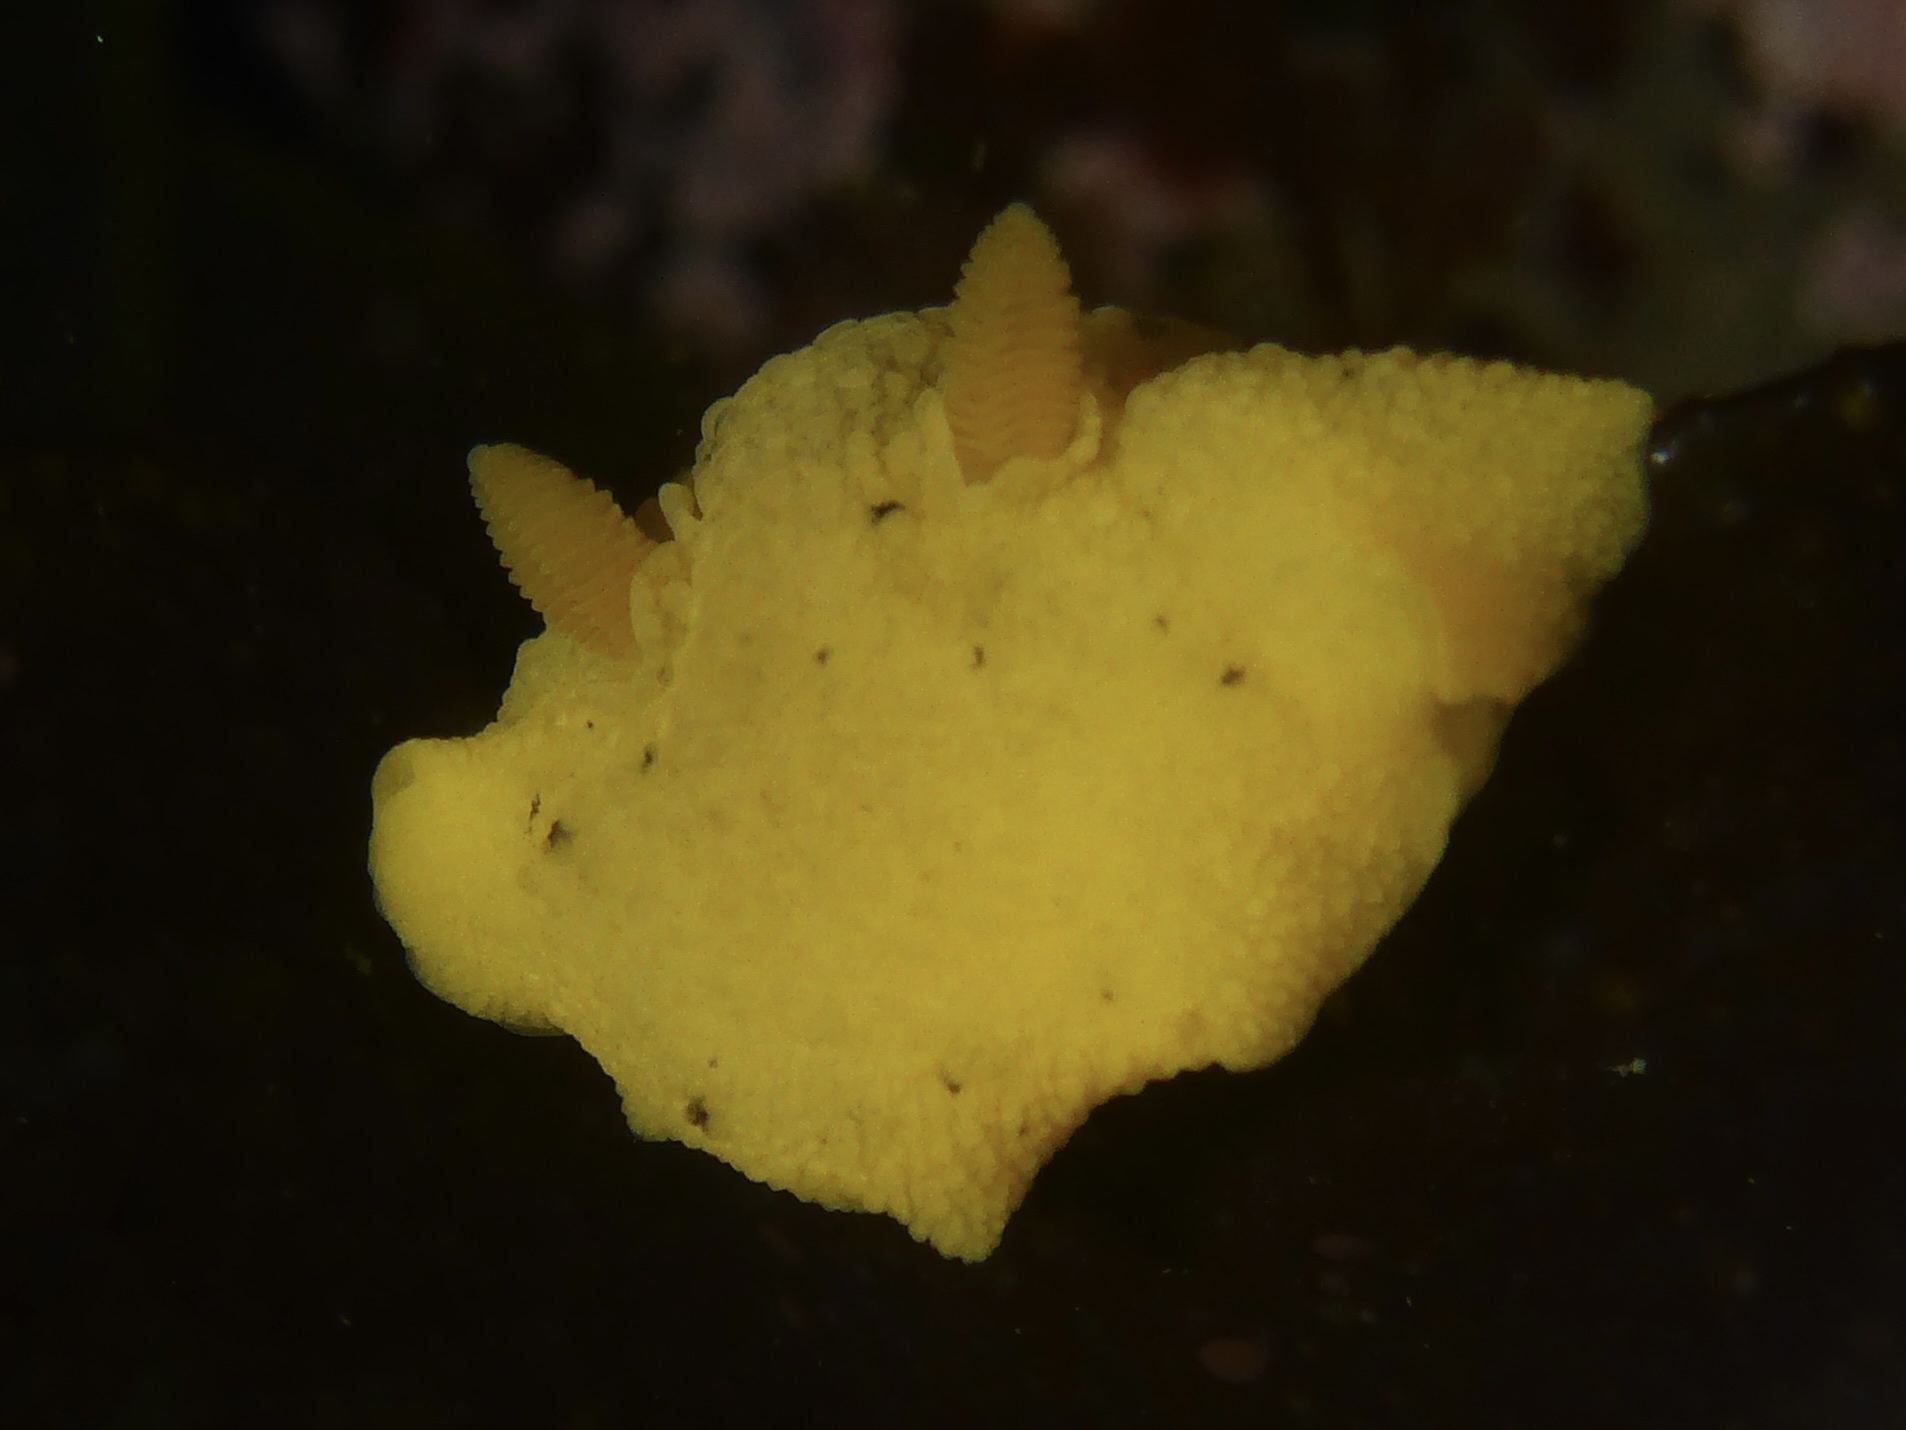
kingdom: Animalia
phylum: Mollusca
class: Gastropoda
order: Nudibranchia
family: Discodorididae
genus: Geitodoris
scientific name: Geitodoris heathi
